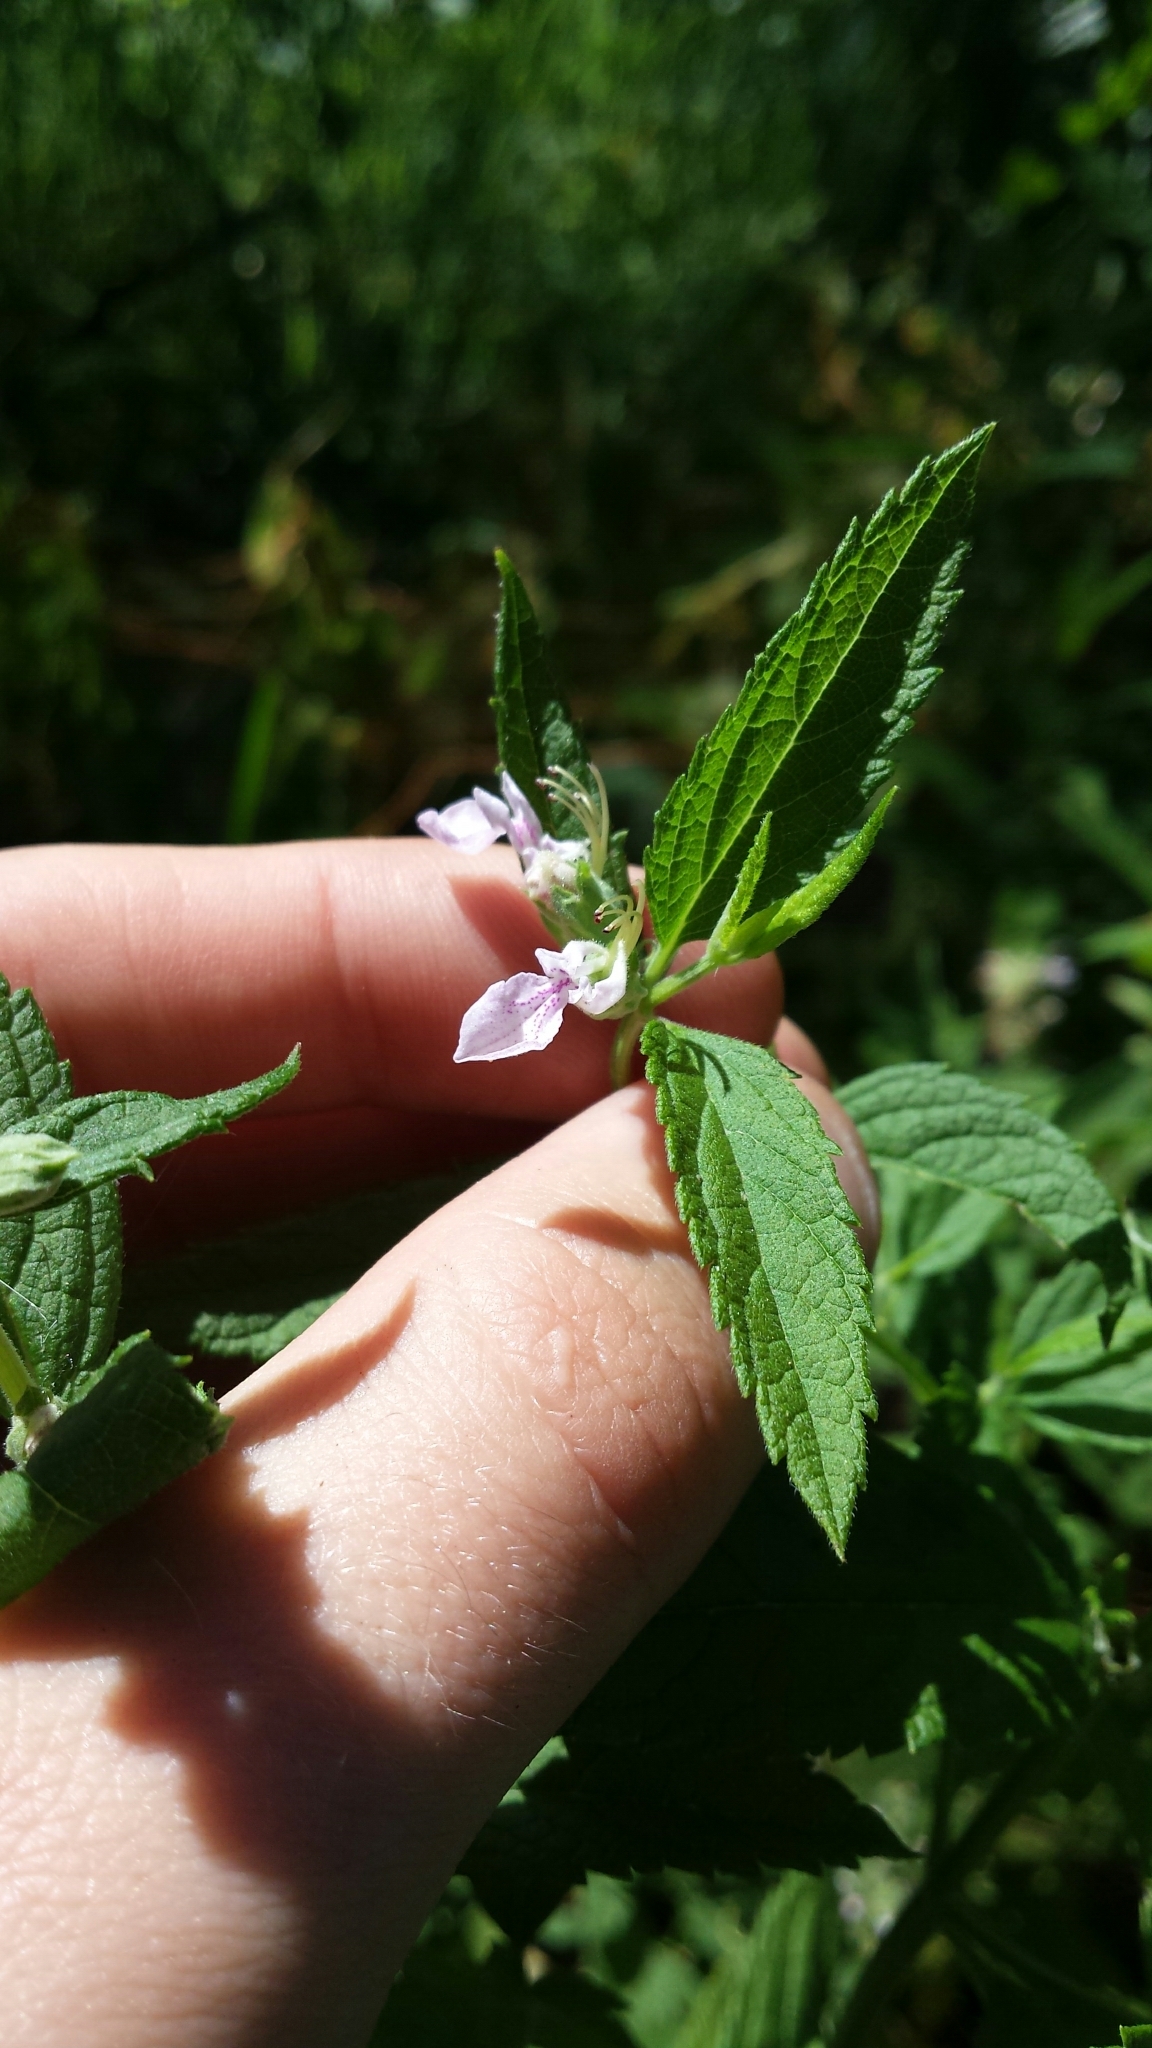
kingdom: Plantae
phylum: Tracheophyta
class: Magnoliopsida
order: Lamiales
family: Lamiaceae
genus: Teucrium
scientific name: Teucrium canadense
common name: American germander
